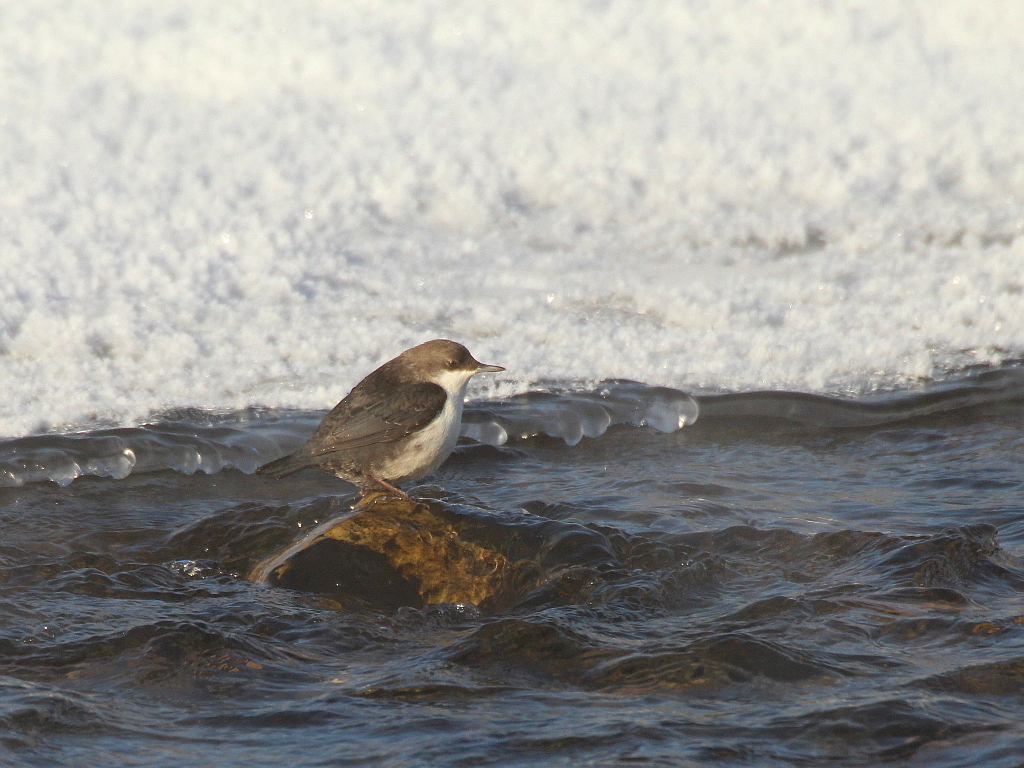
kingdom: Animalia
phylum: Chordata
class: Aves
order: Passeriformes
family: Cinclidae
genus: Cinclus
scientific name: Cinclus cinclus
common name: White-throated dipper
